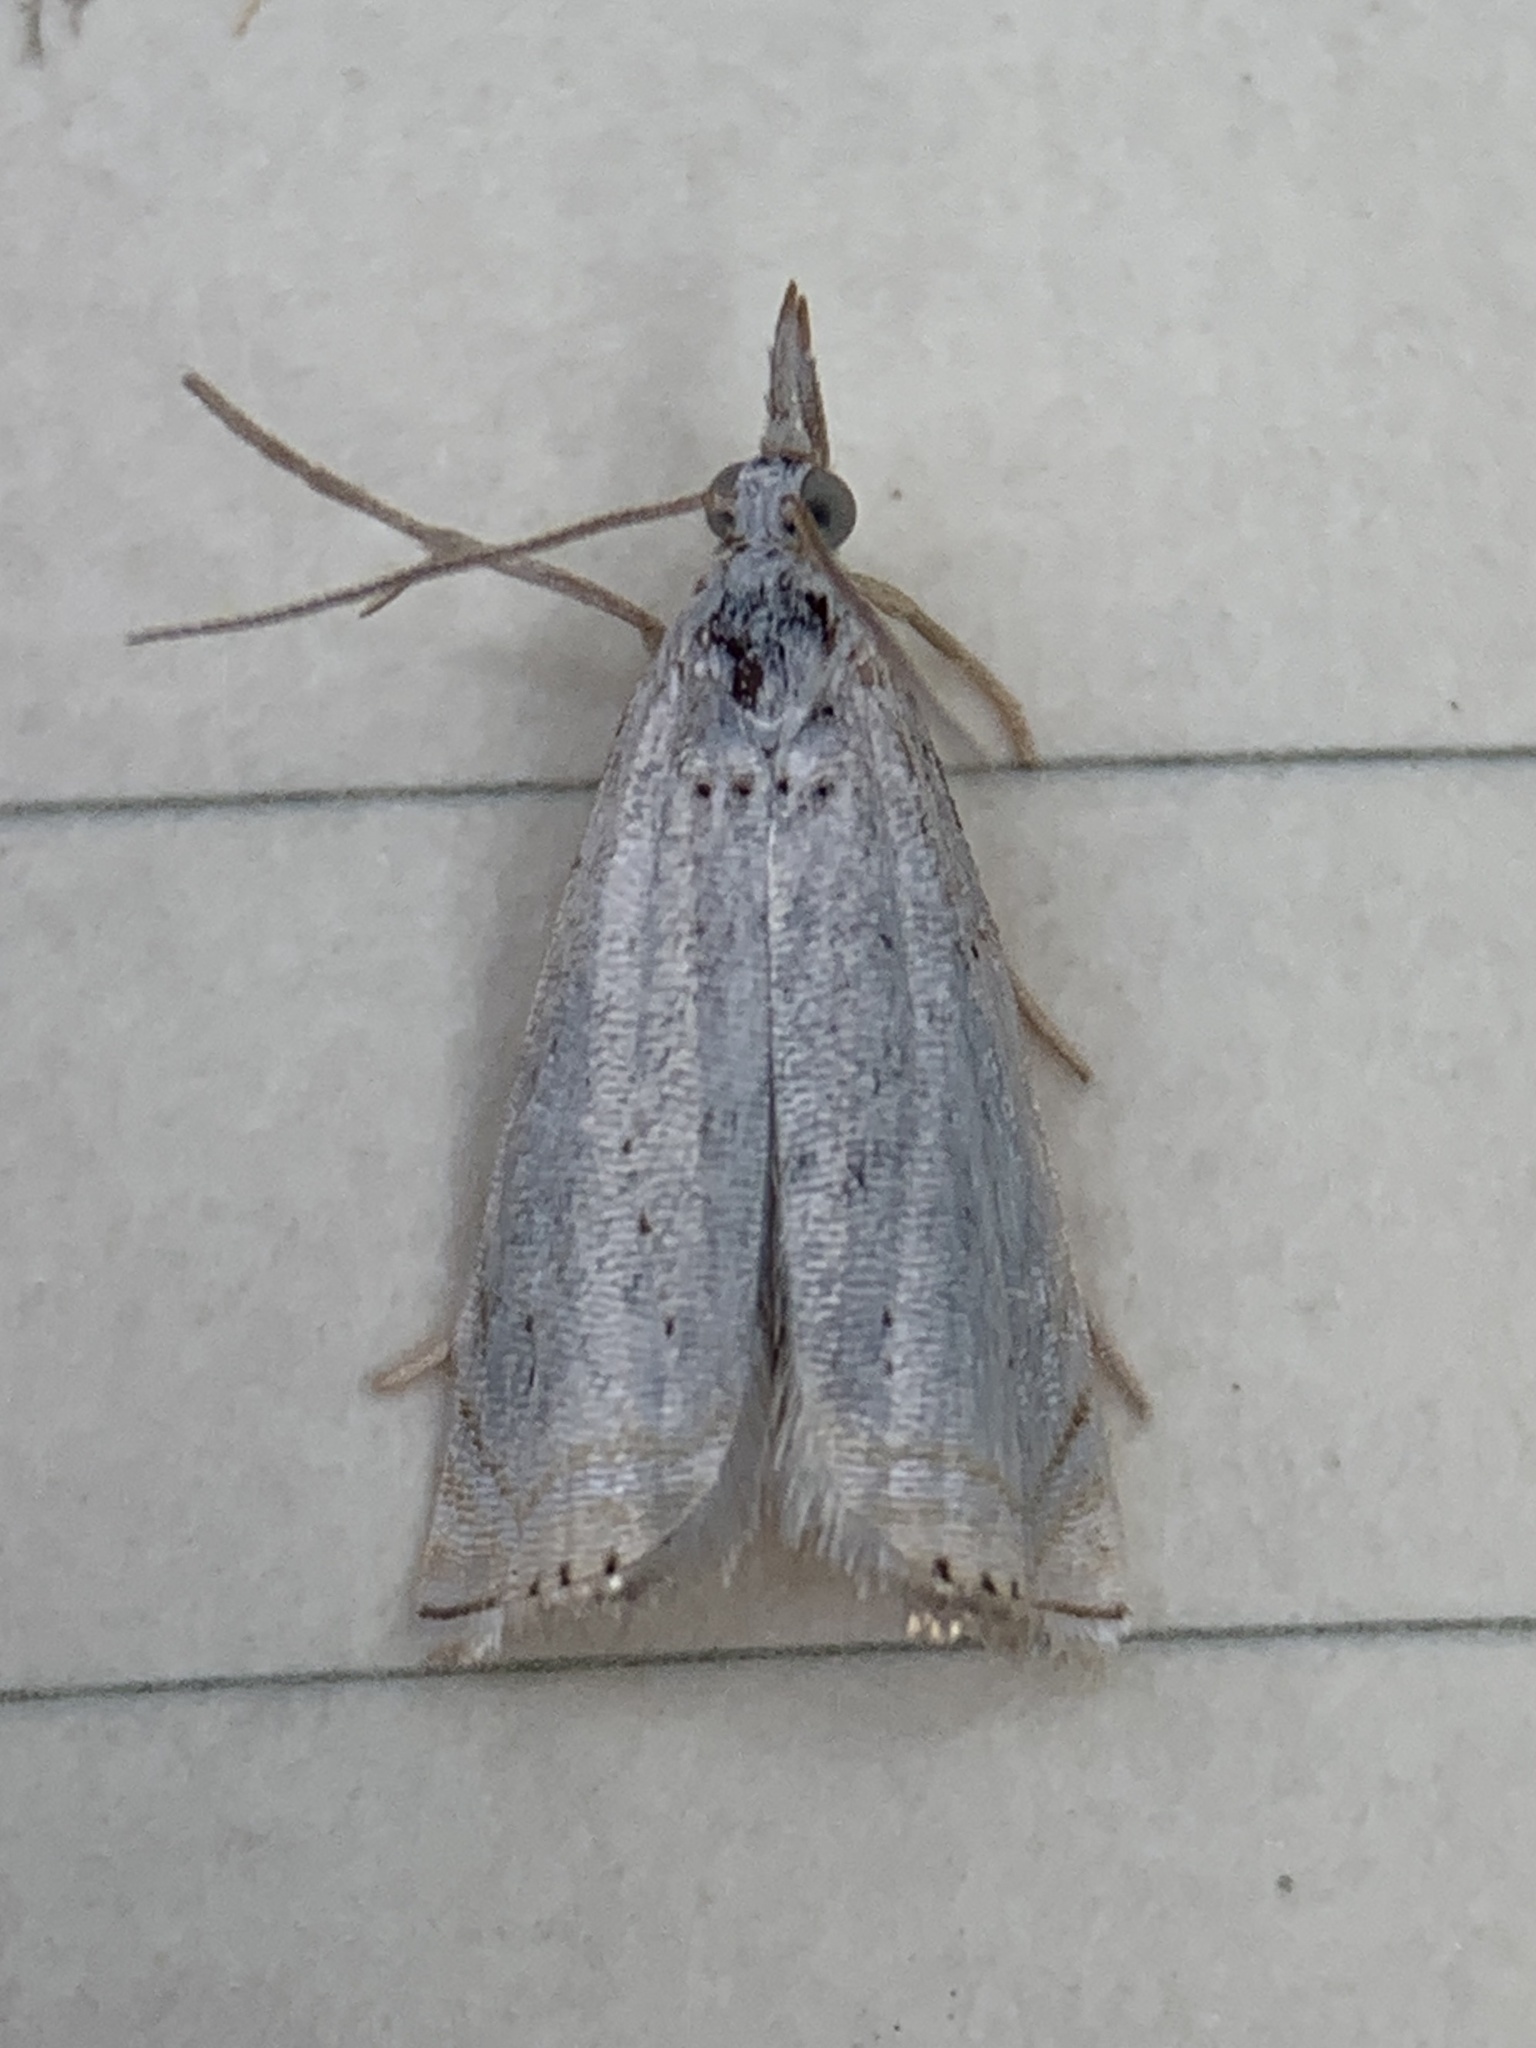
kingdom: Animalia
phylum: Arthropoda
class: Insecta
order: Lepidoptera
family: Crambidae
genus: Crambus
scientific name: Crambus albellus
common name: Small white grass-veneer
